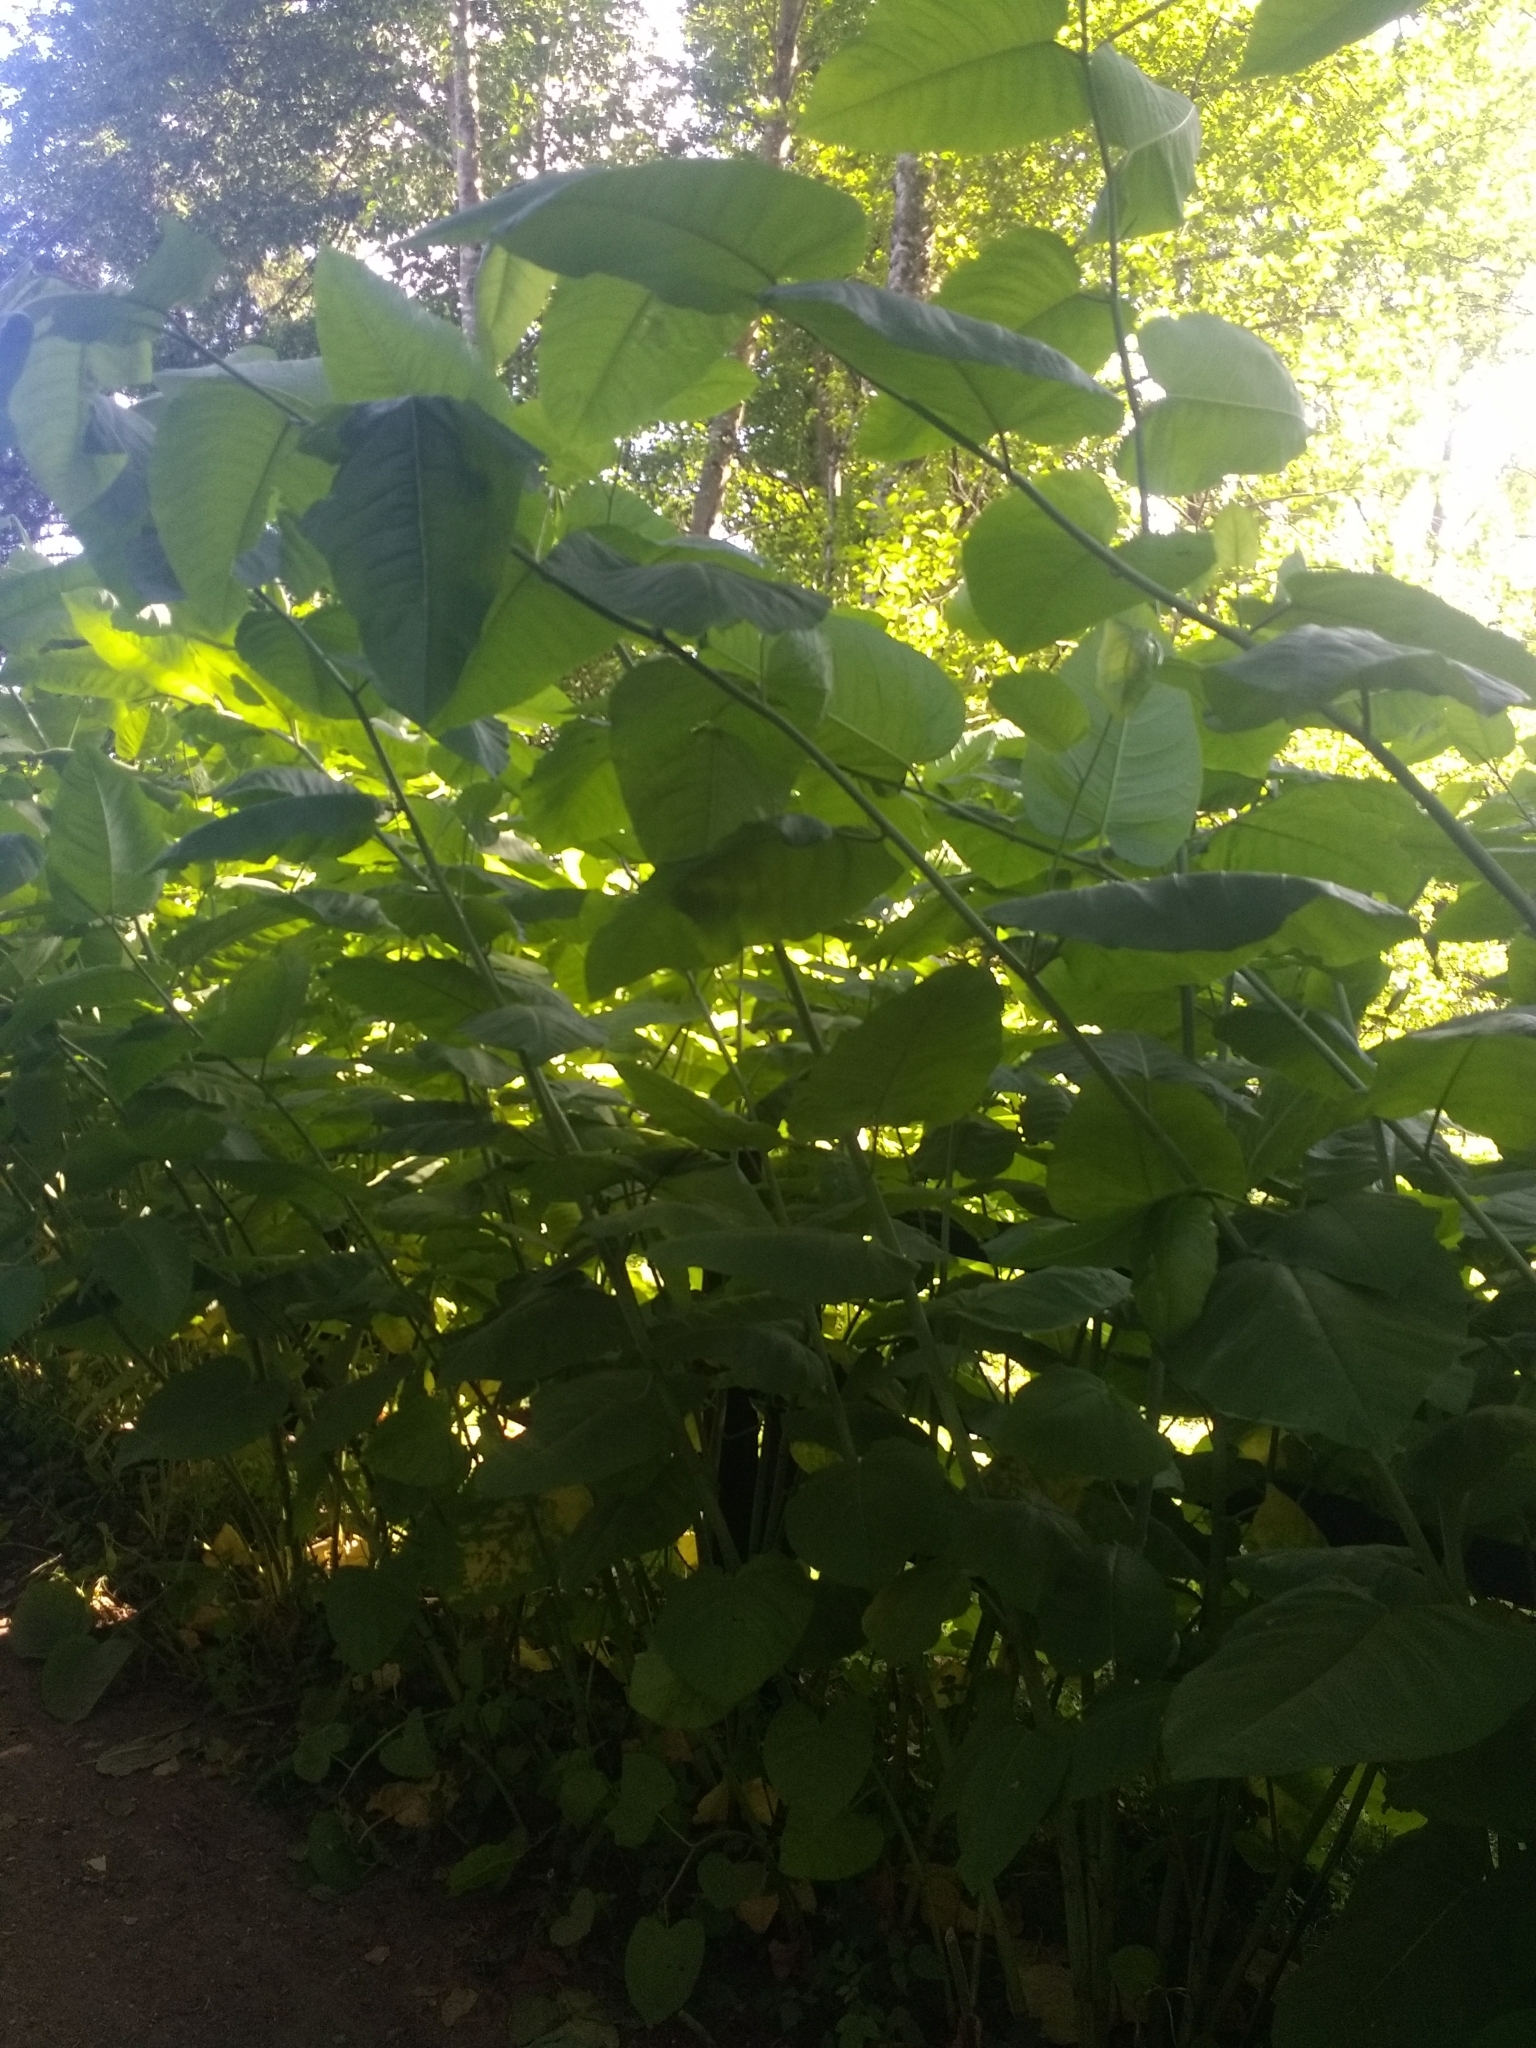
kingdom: Plantae
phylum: Tracheophyta
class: Magnoliopsida
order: Caryophyllales
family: Polygonaceae
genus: Reynoutria
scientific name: Reynoutria sachalinensis
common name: Giant knotweed
